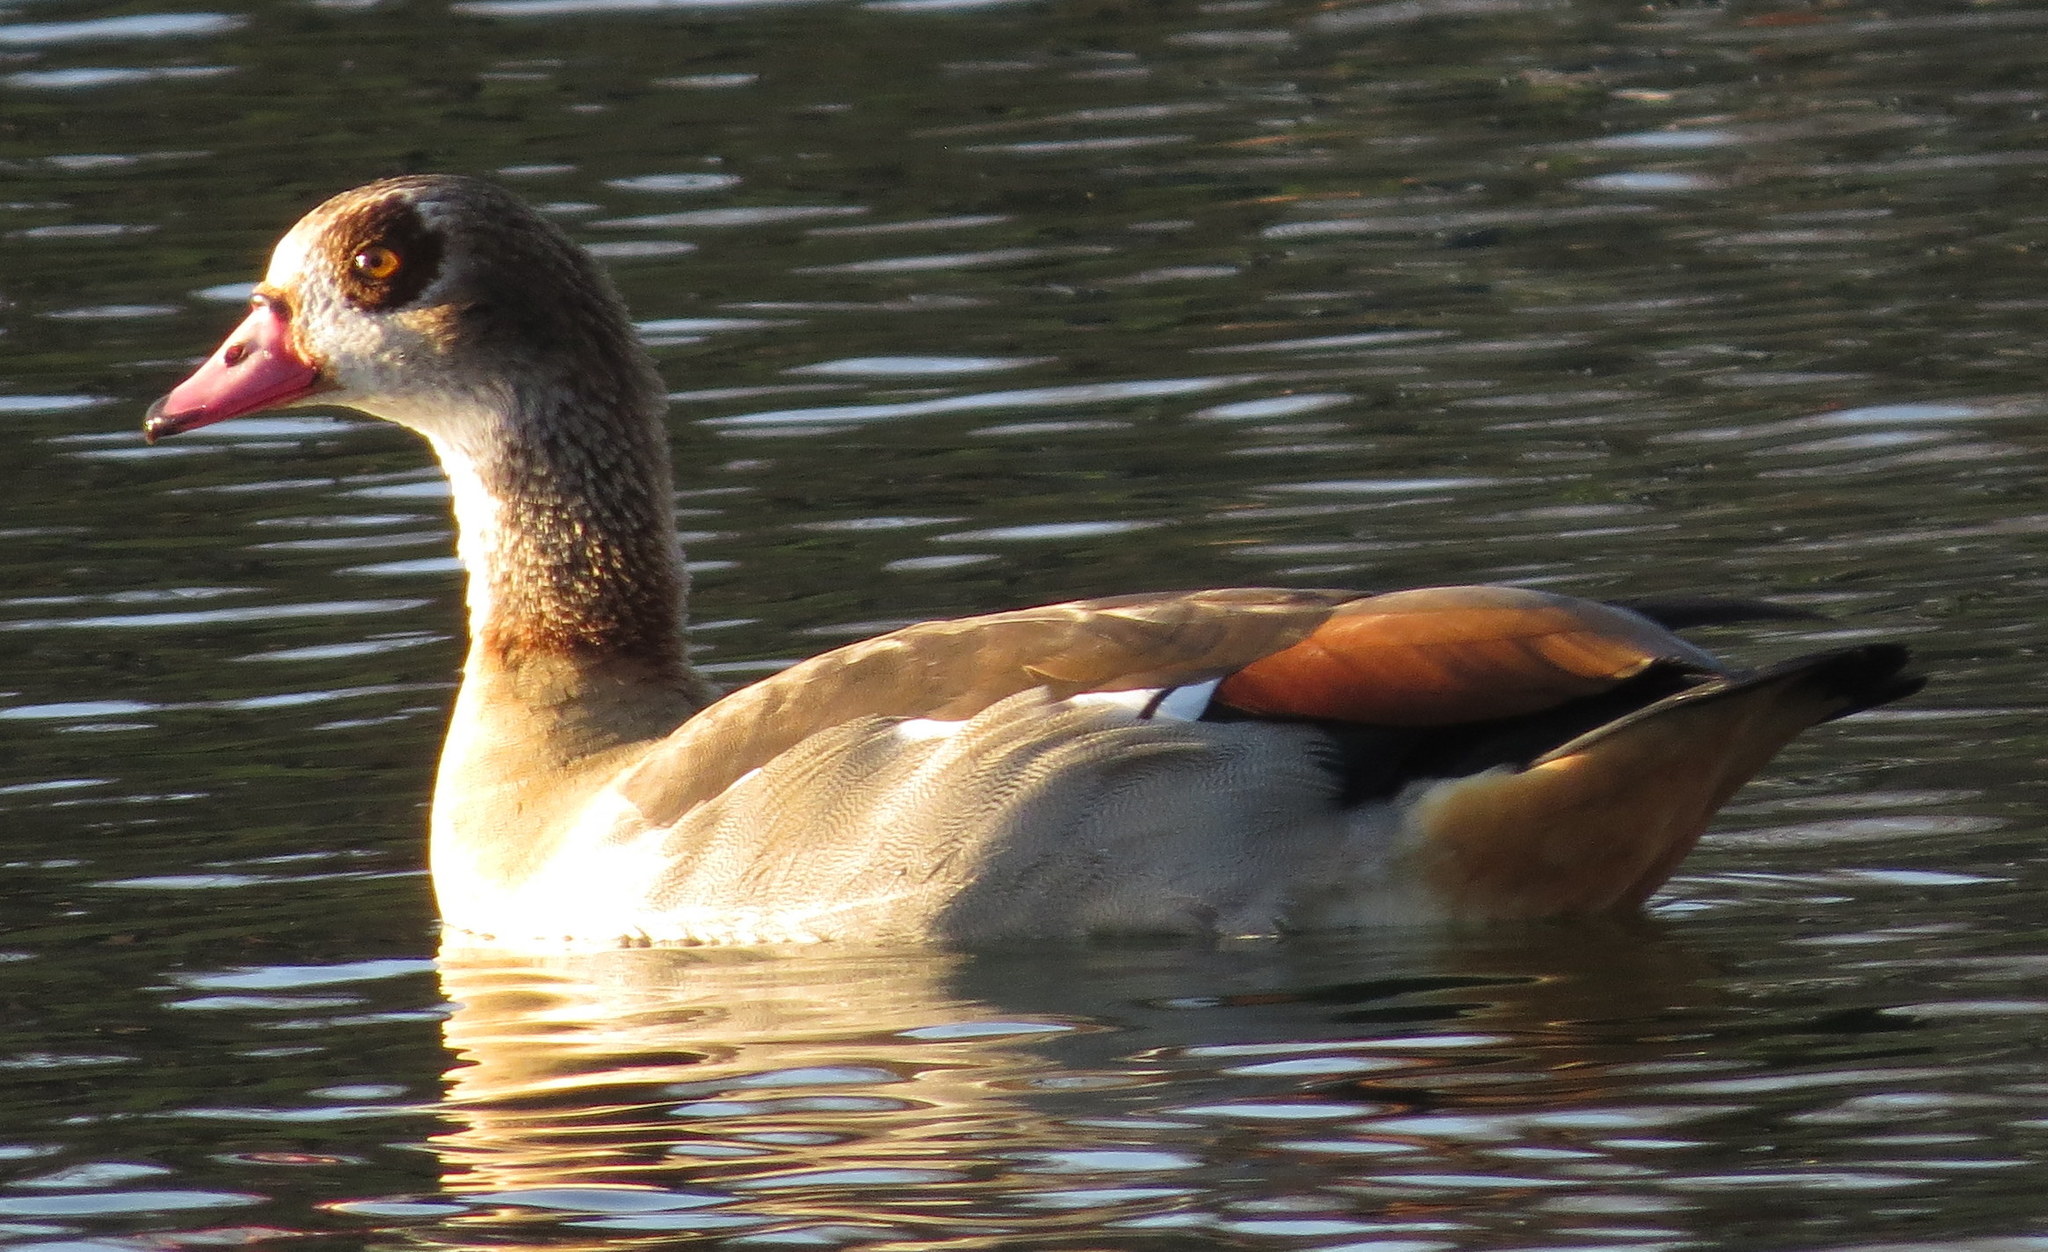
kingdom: Animalia
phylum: Chordata
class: Aves
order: Anseriformes
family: Anatidae
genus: Alopochen
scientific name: Alopochen aegyptiaca
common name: Egyptian goose
